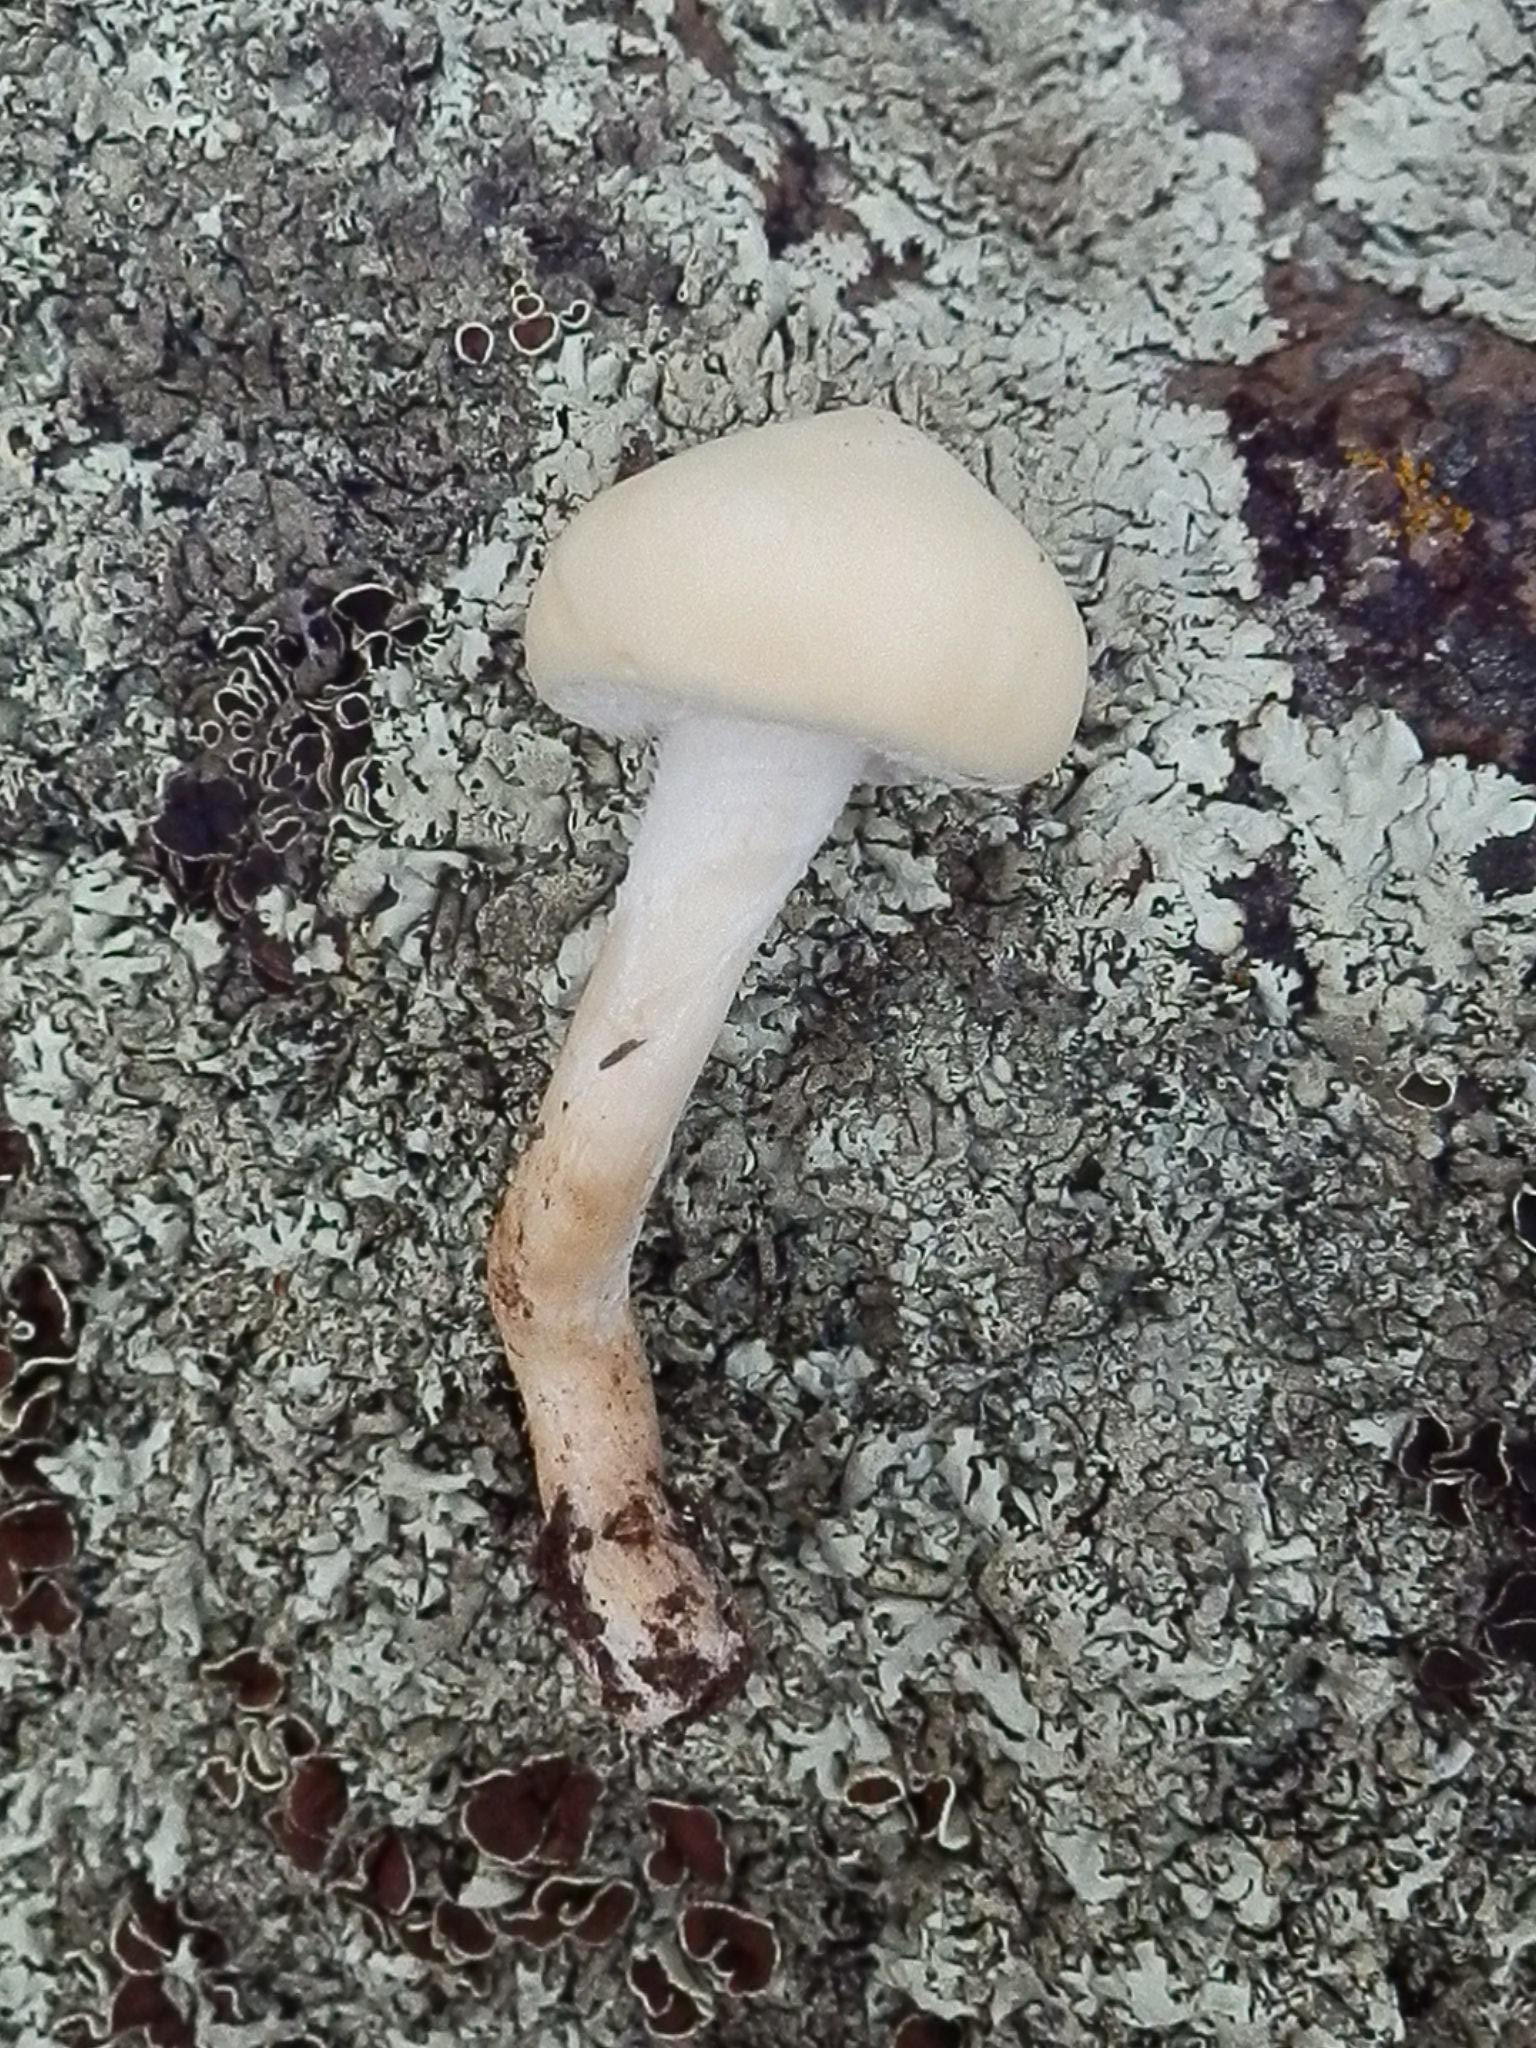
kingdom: Fungi
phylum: Basidiomycota
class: Agaricomycetes
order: Agaricales
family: Strophariaceae
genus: Stropharia
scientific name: Stropharia ambigua
